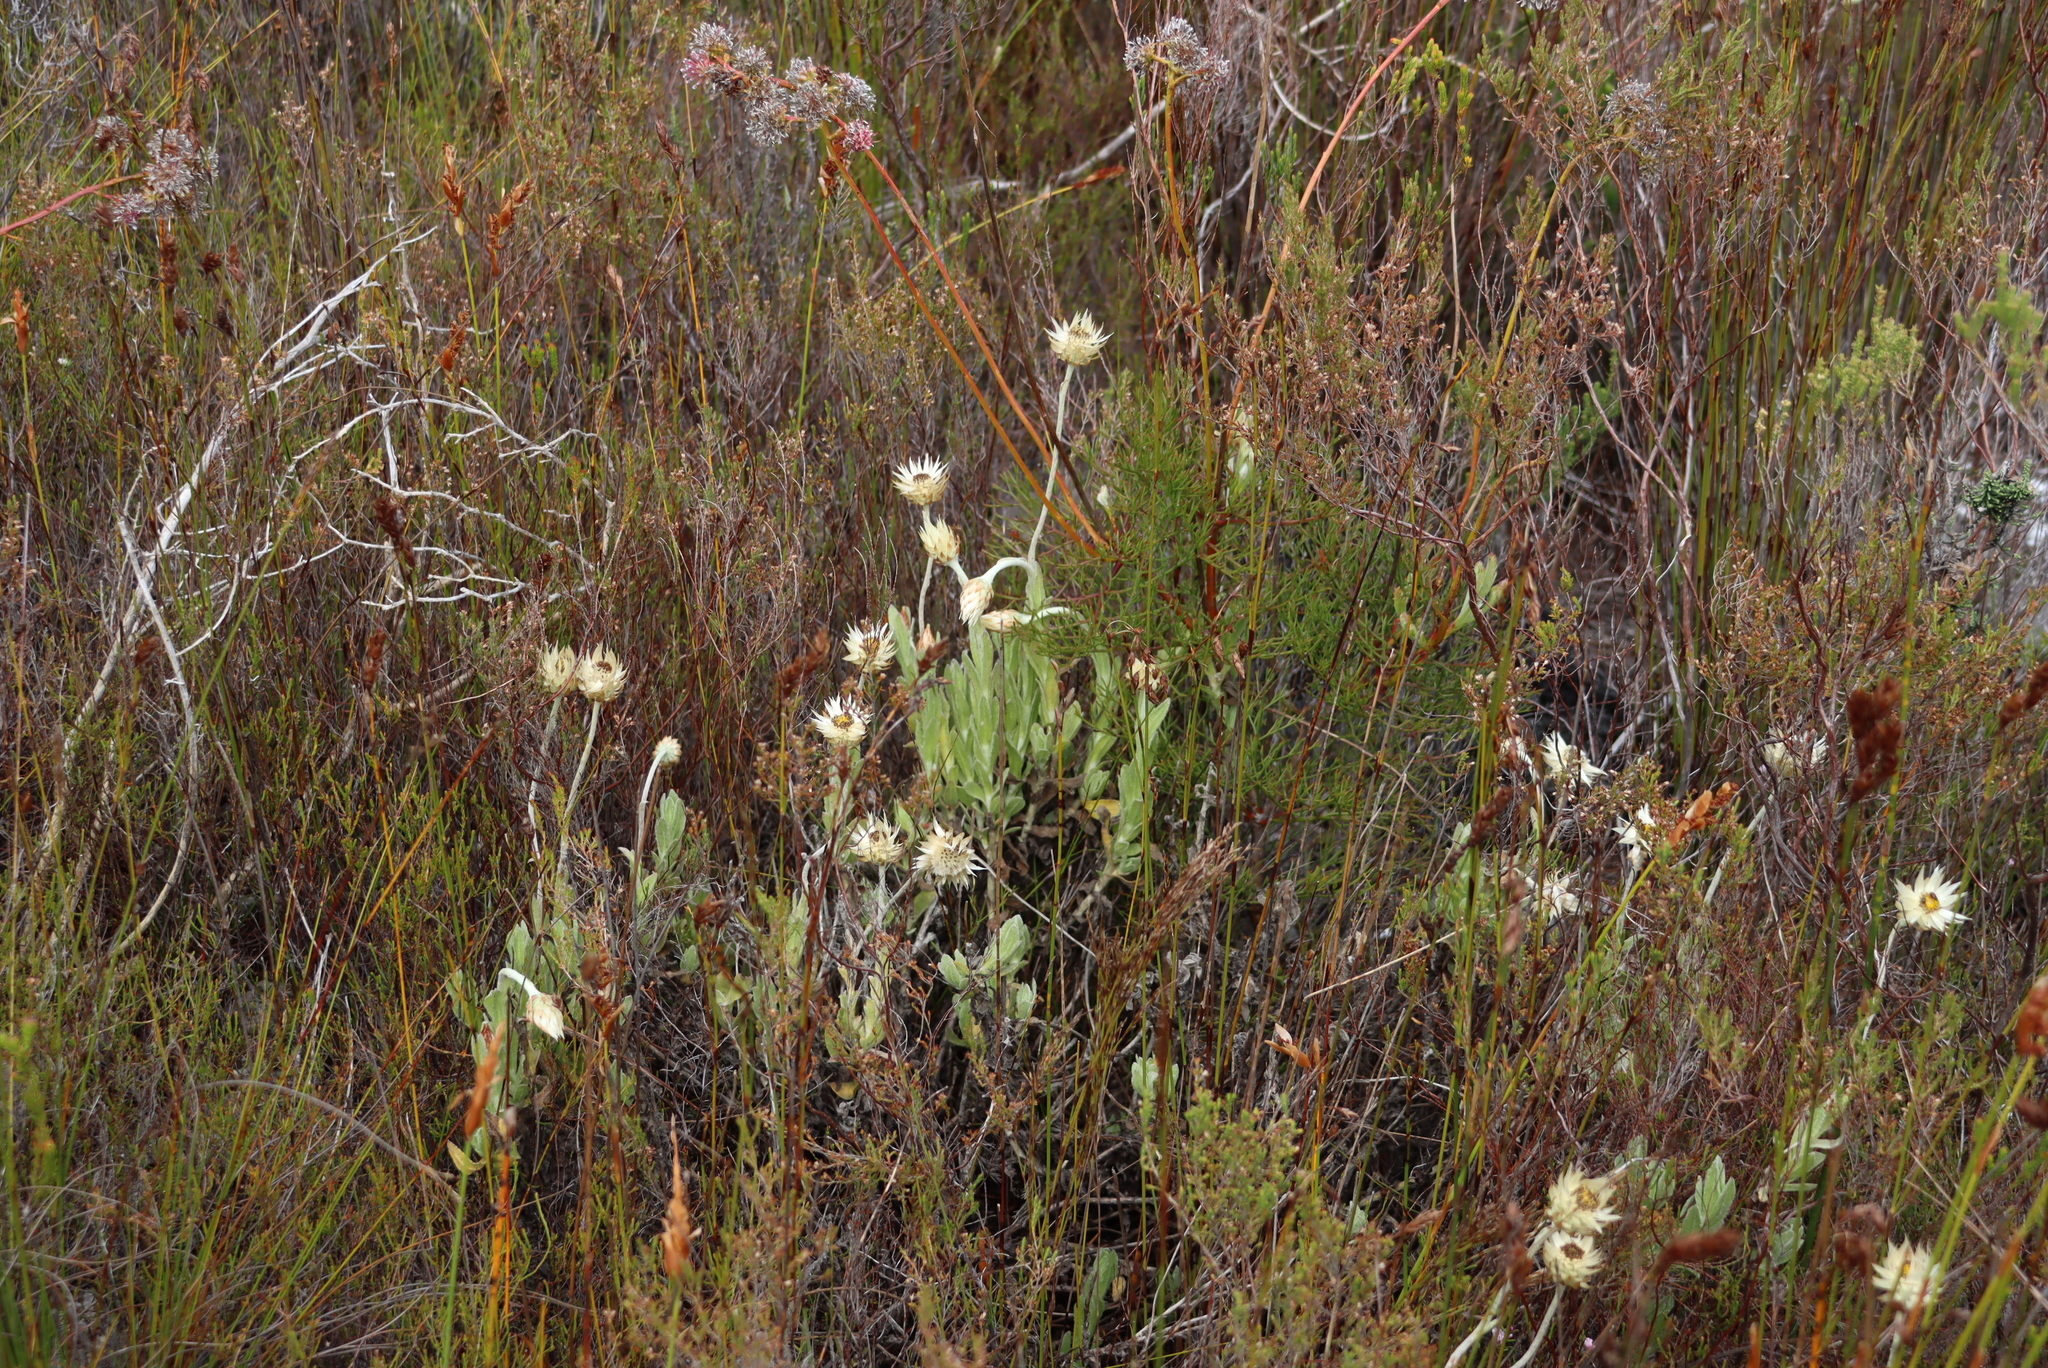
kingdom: Plantae
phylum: Tracheophyta
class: Magnoliopsida
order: Asterales
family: Asteraceae
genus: Syncarpha
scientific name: Syncarpha speciosissima
